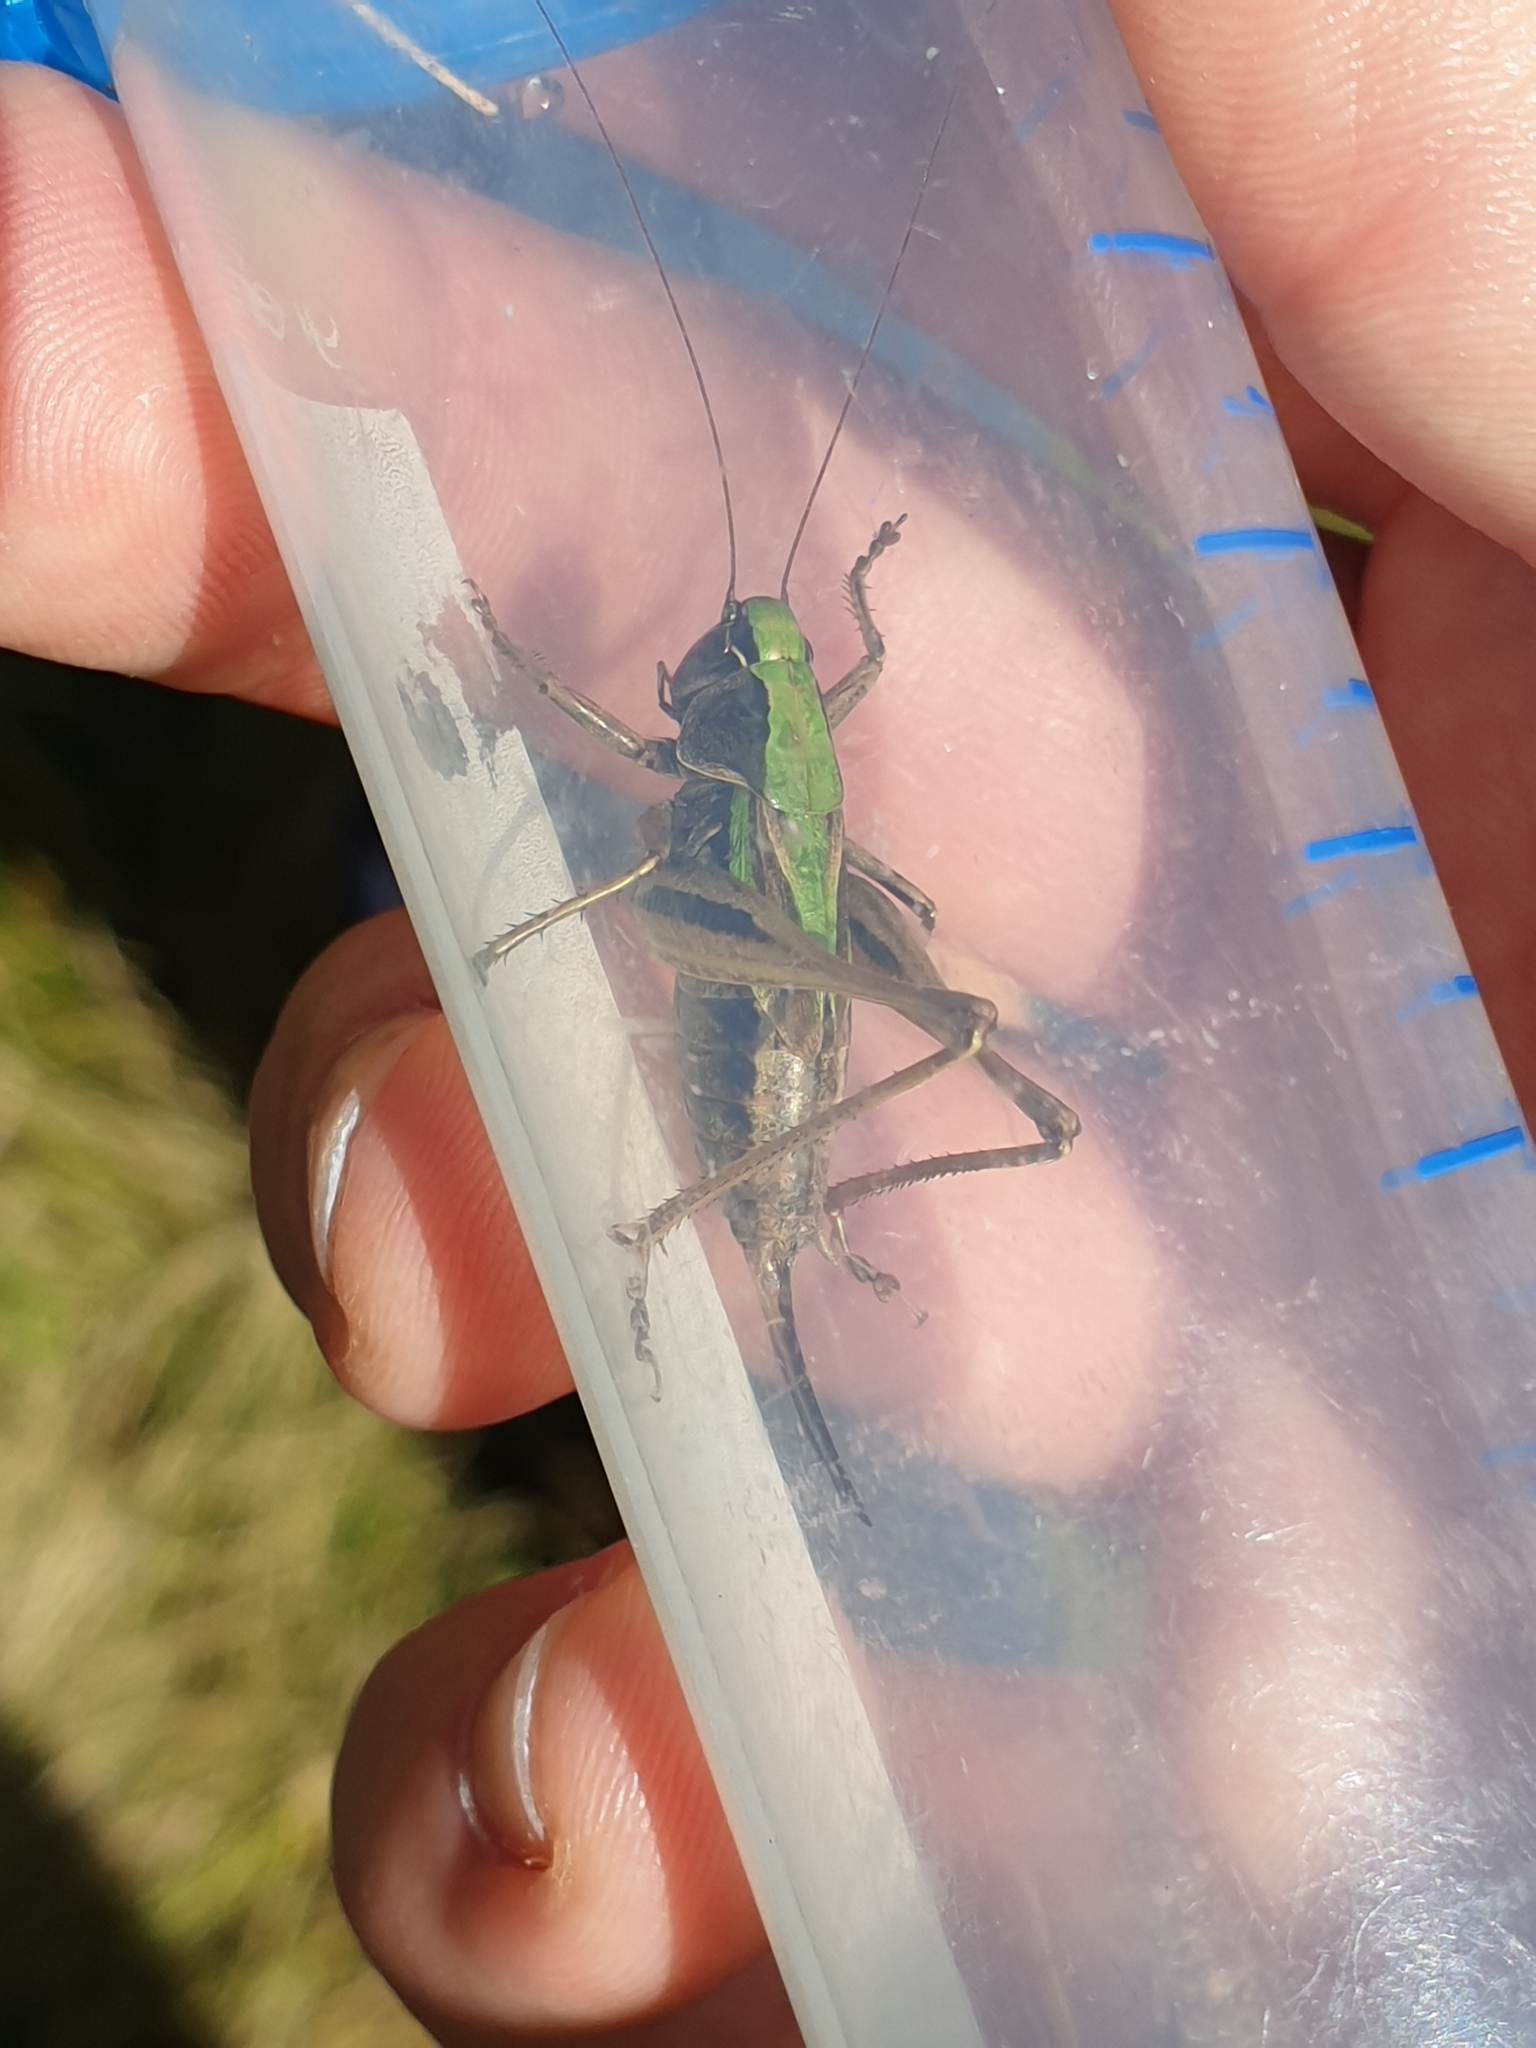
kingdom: Animalia
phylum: Arthropoda
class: Insecta
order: Orthoptera
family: Tettigoniidae
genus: Metrioptera
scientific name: Metrioptera brachyptera
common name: Bog bush-cricket
